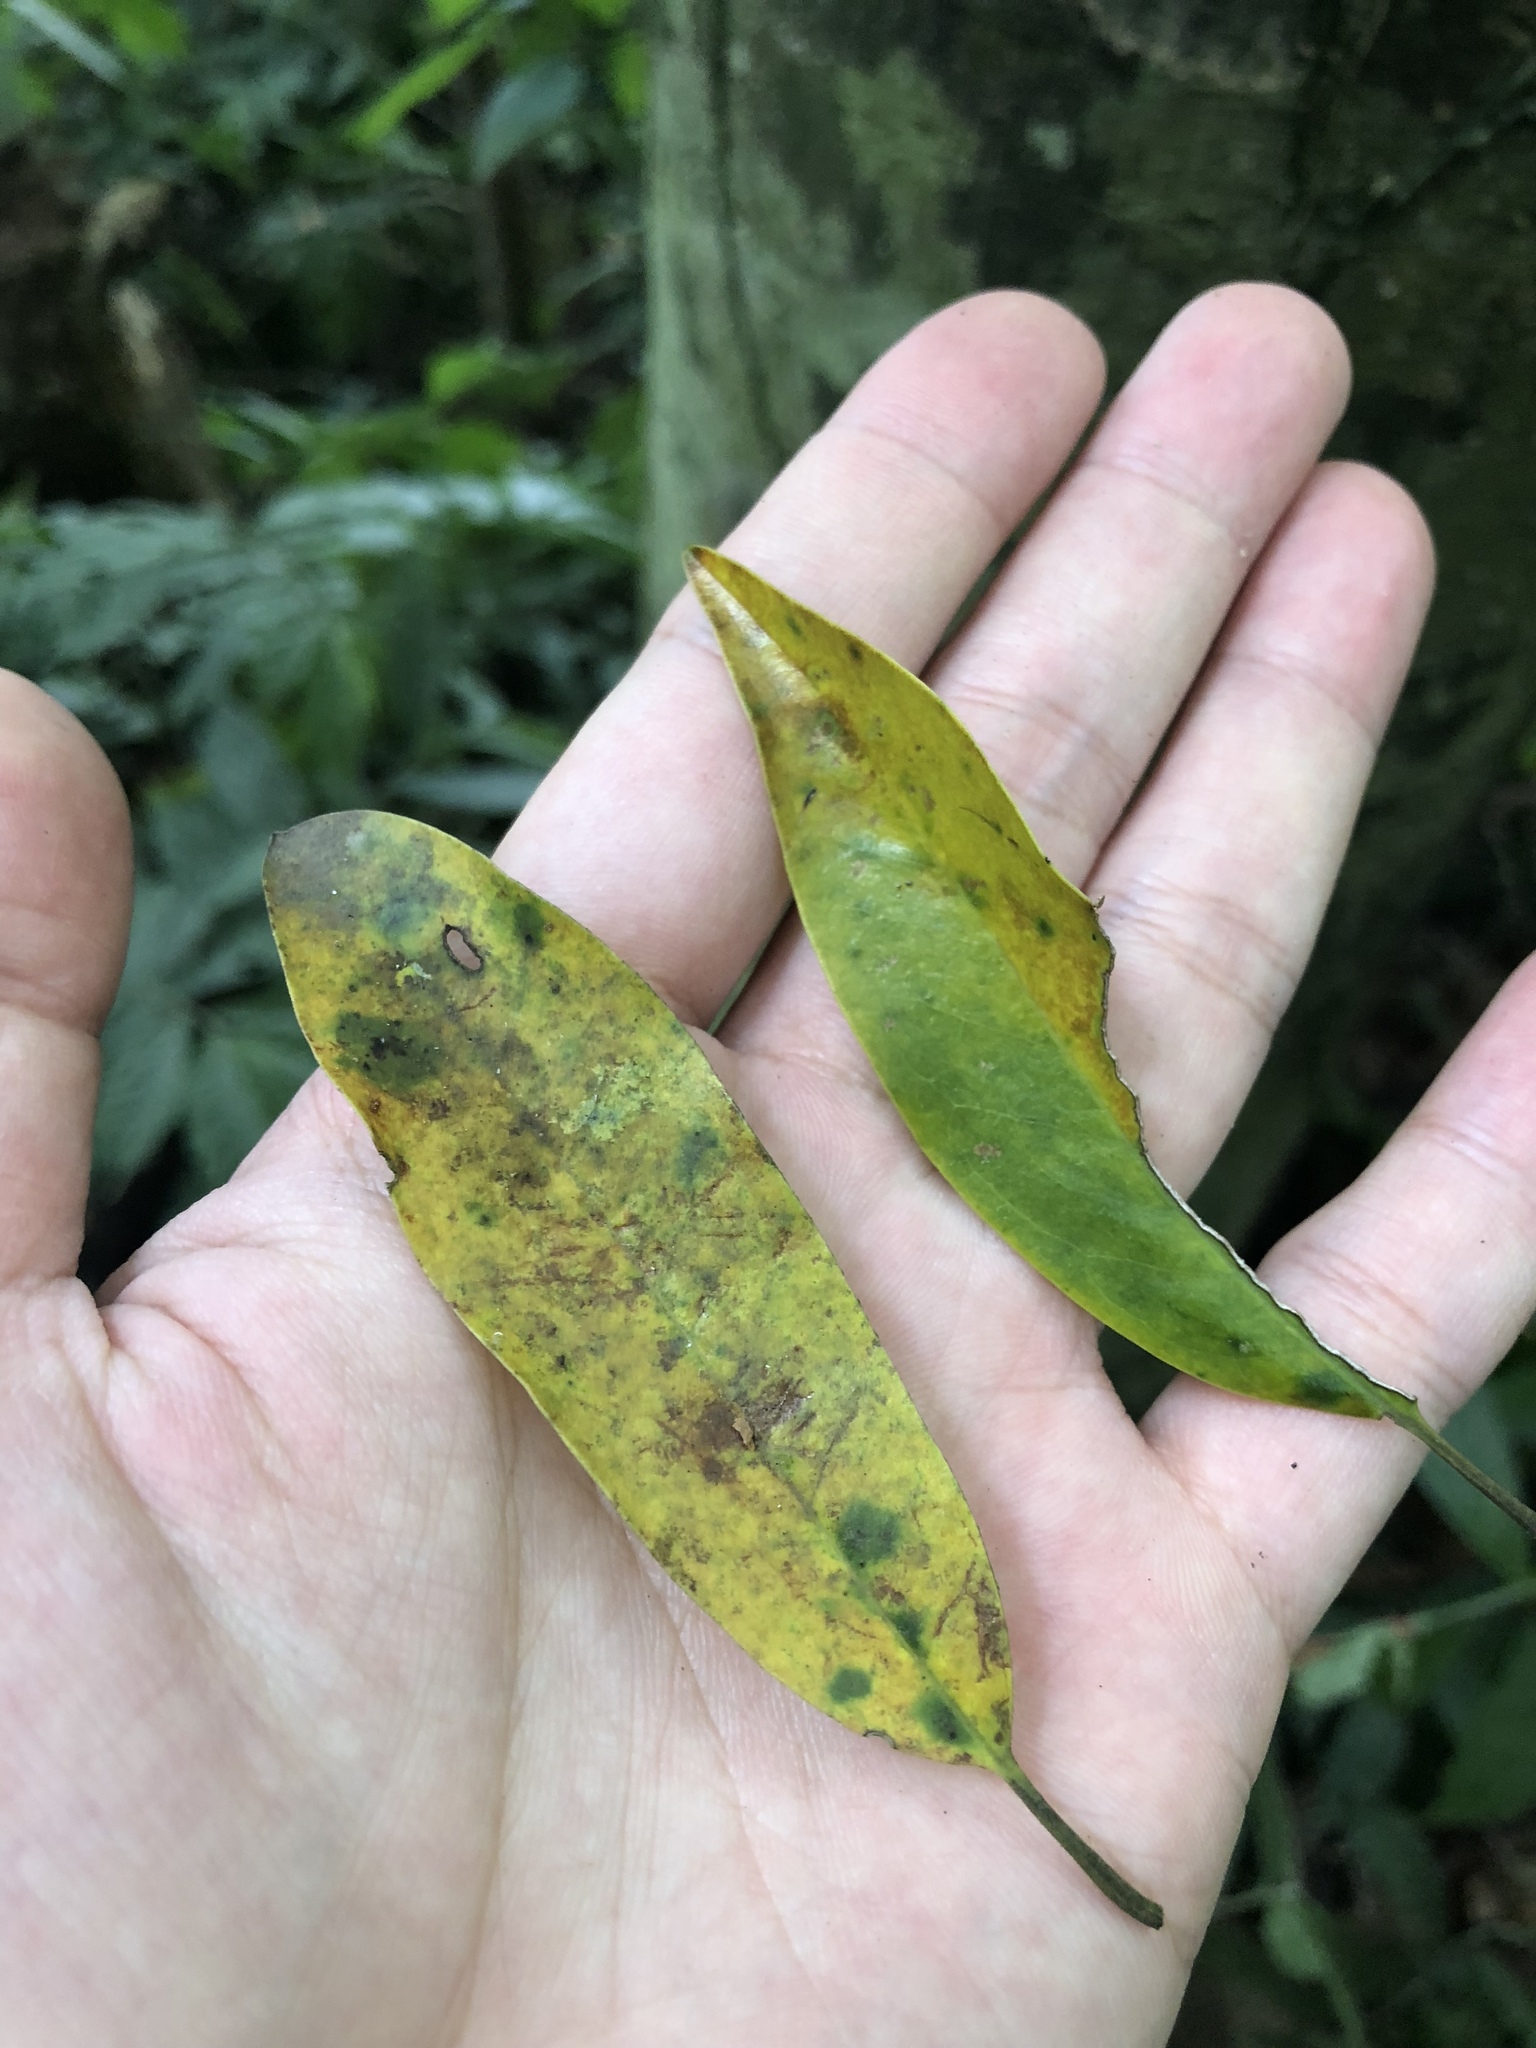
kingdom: Plantae
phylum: Tracheophyta
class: Magnoliopsida
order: Magnoliales
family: Magnoliaceae
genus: Magnolia
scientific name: Magnolia compressa
